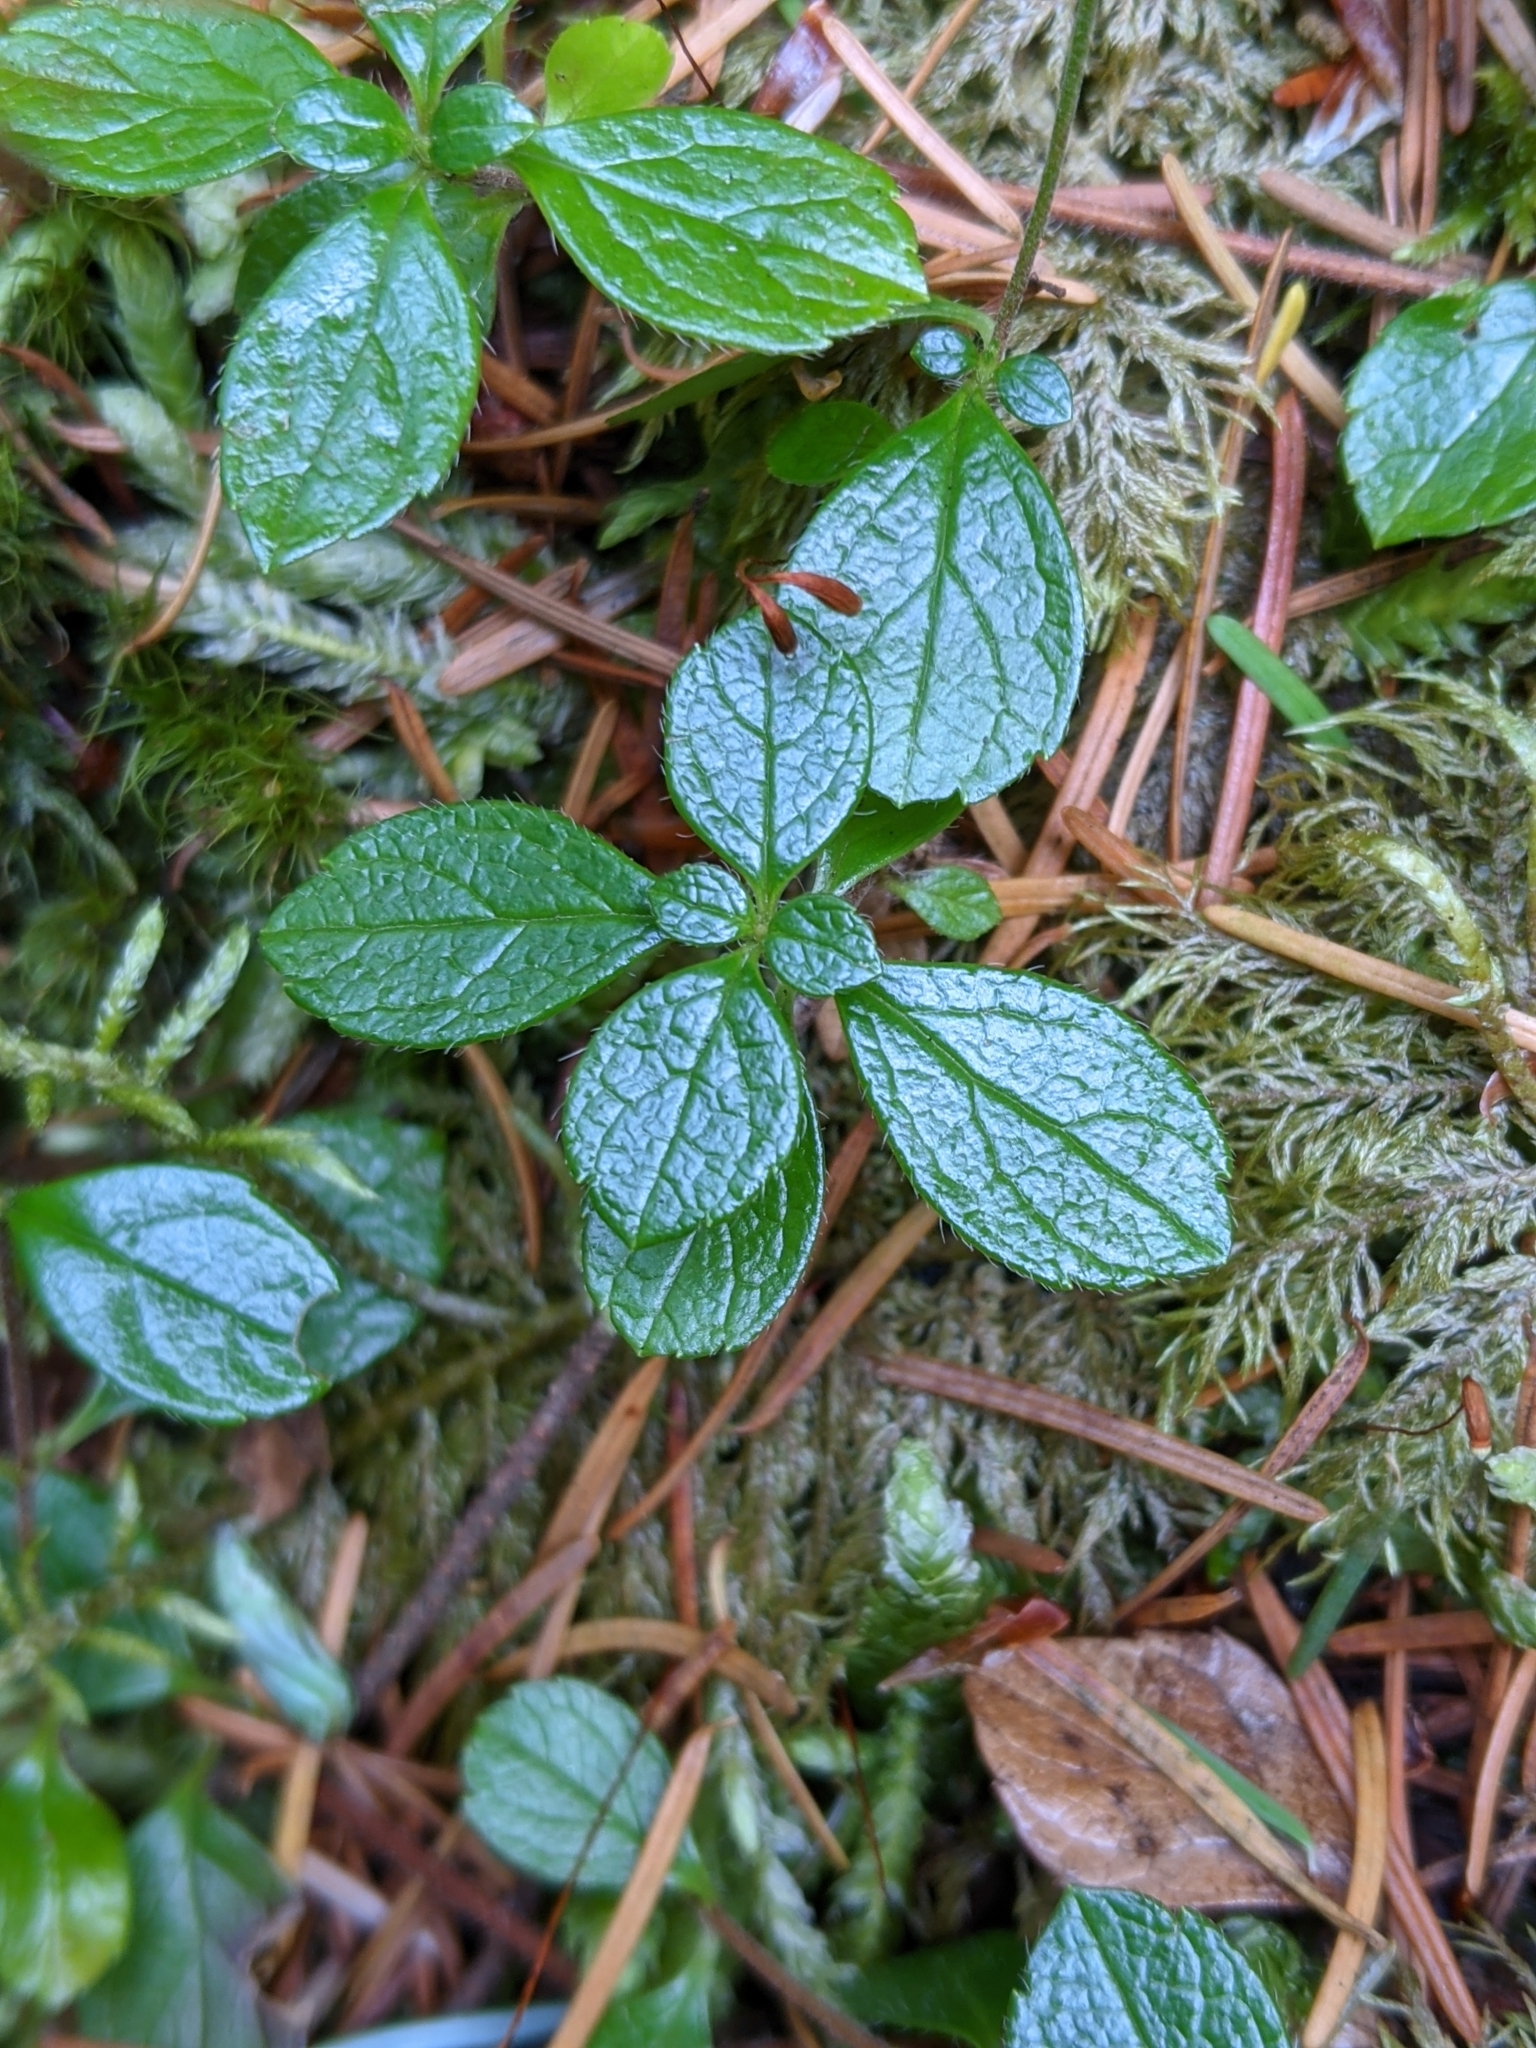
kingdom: Plantae
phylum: Tracheophyta
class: Magnoliopsida
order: Dipsacales
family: Caprifoliaceae
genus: Linnaea
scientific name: Linnaea borealis
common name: Twinflower
